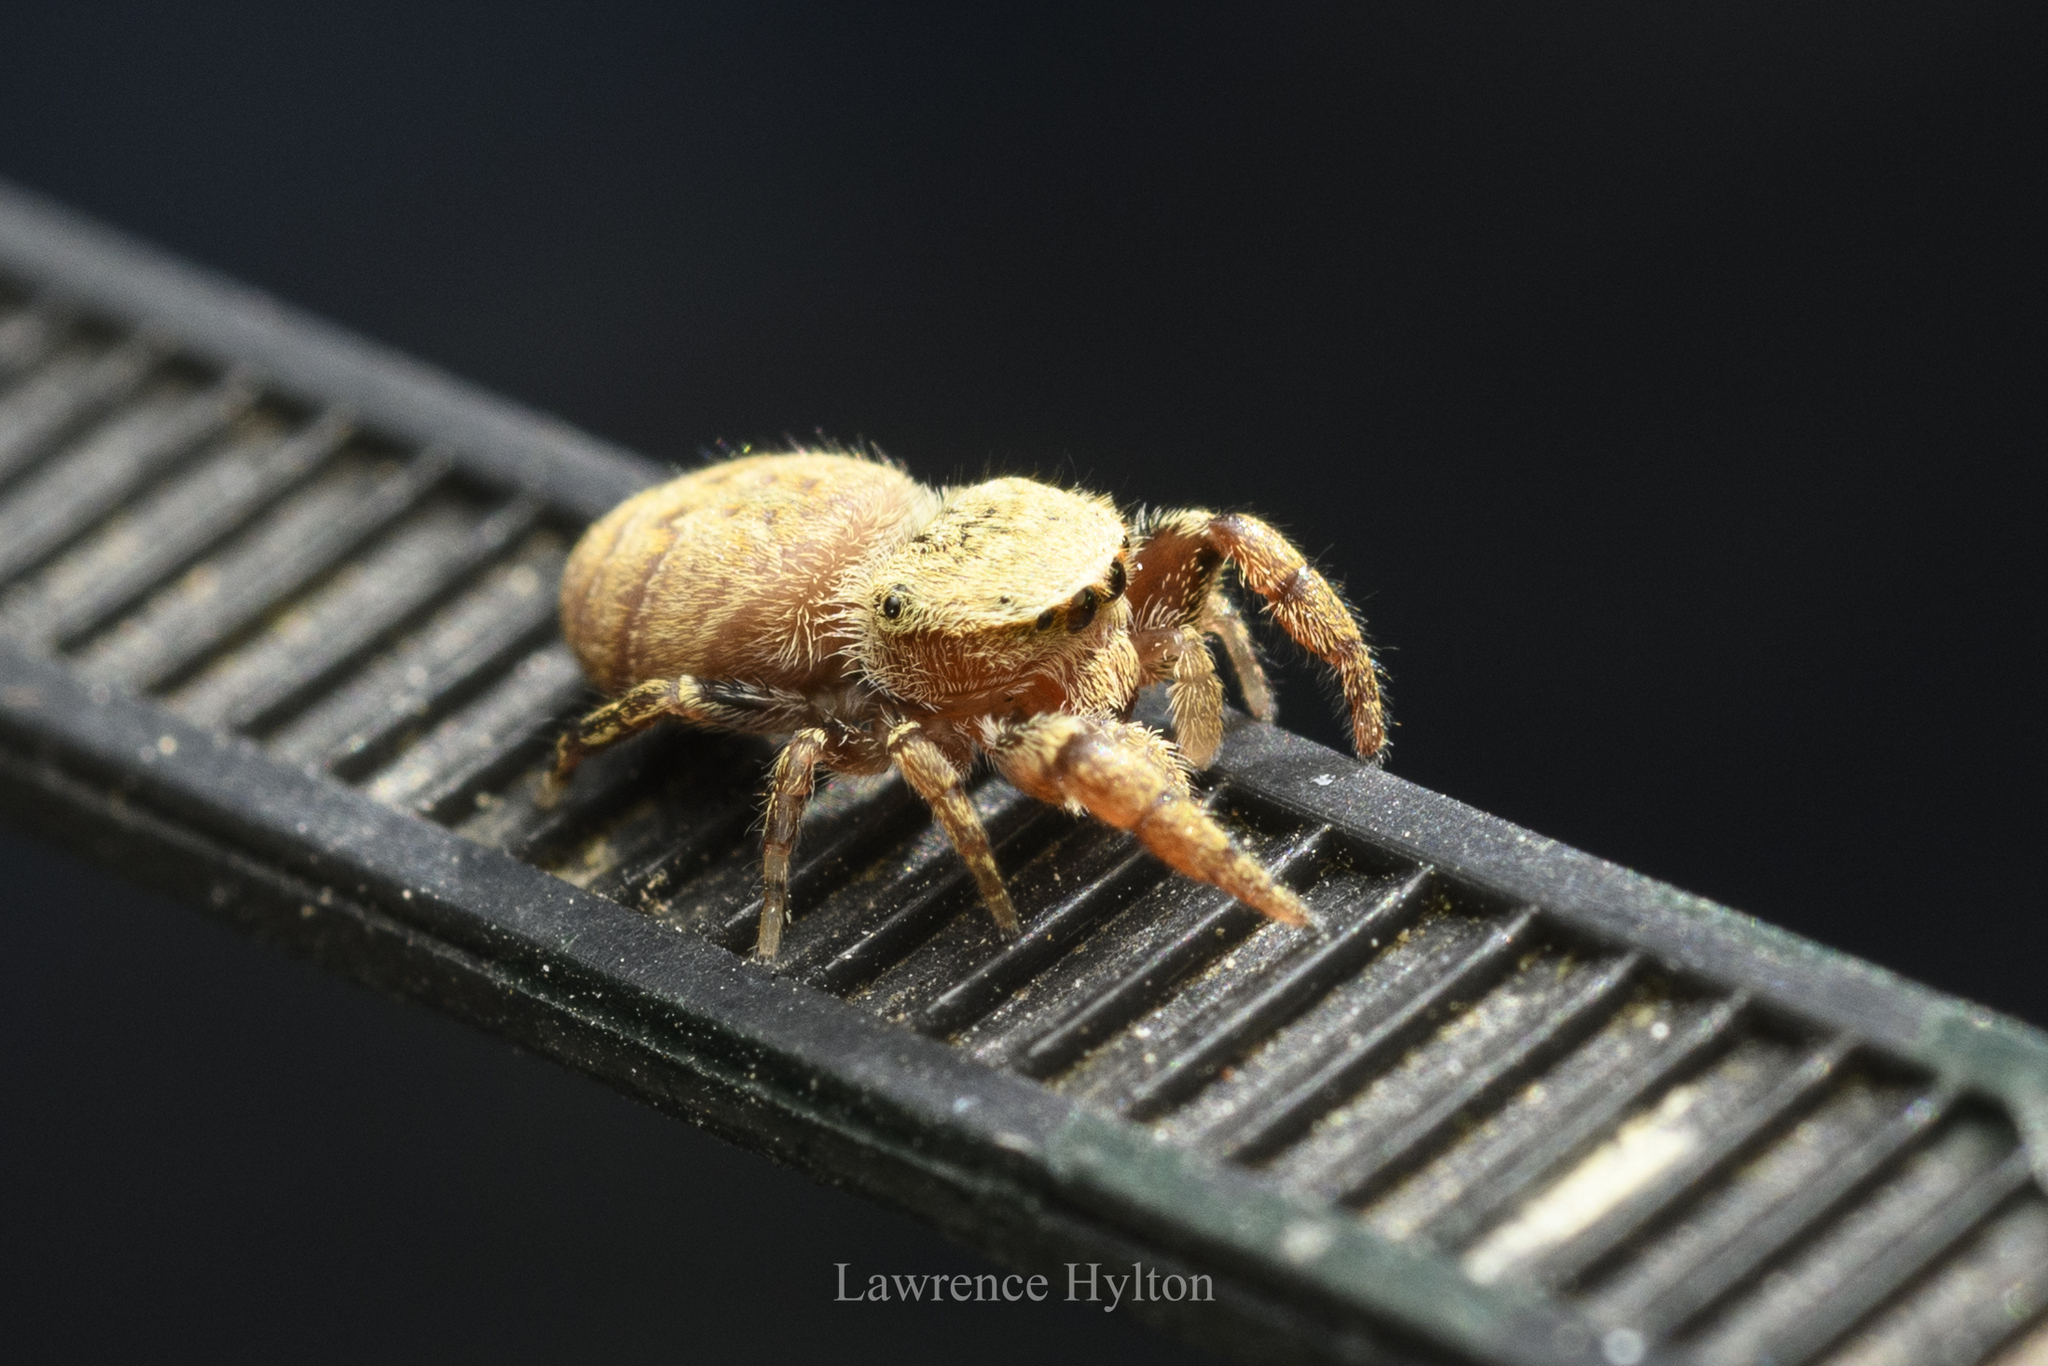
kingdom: Animalia
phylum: Arthropoda
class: Arachnida
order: Araneae
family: Salticidae
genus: Rhene
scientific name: Rhene flavicomans
